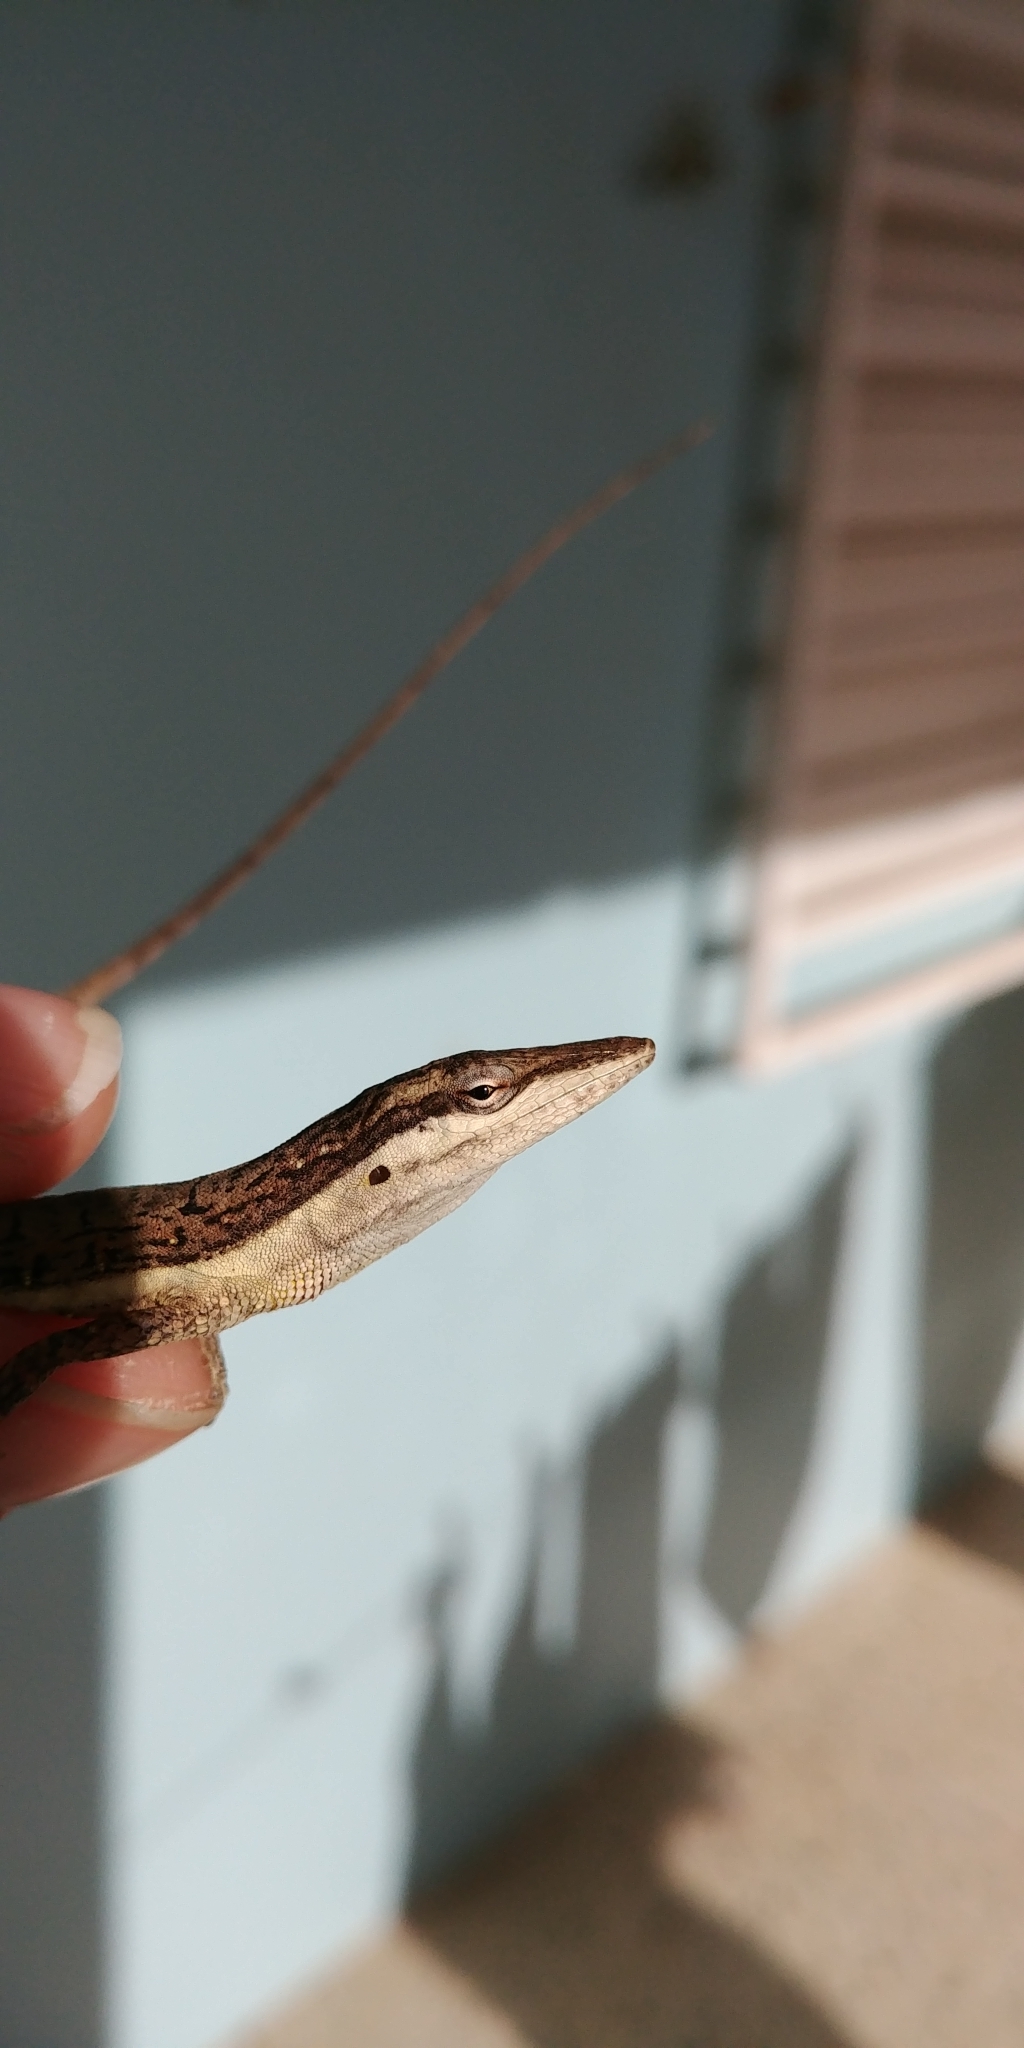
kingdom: Animalia
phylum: Chordata
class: Squamata
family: Dactyloidae
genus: Anolis
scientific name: Anolis pulchellus
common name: Puerto rican anole
